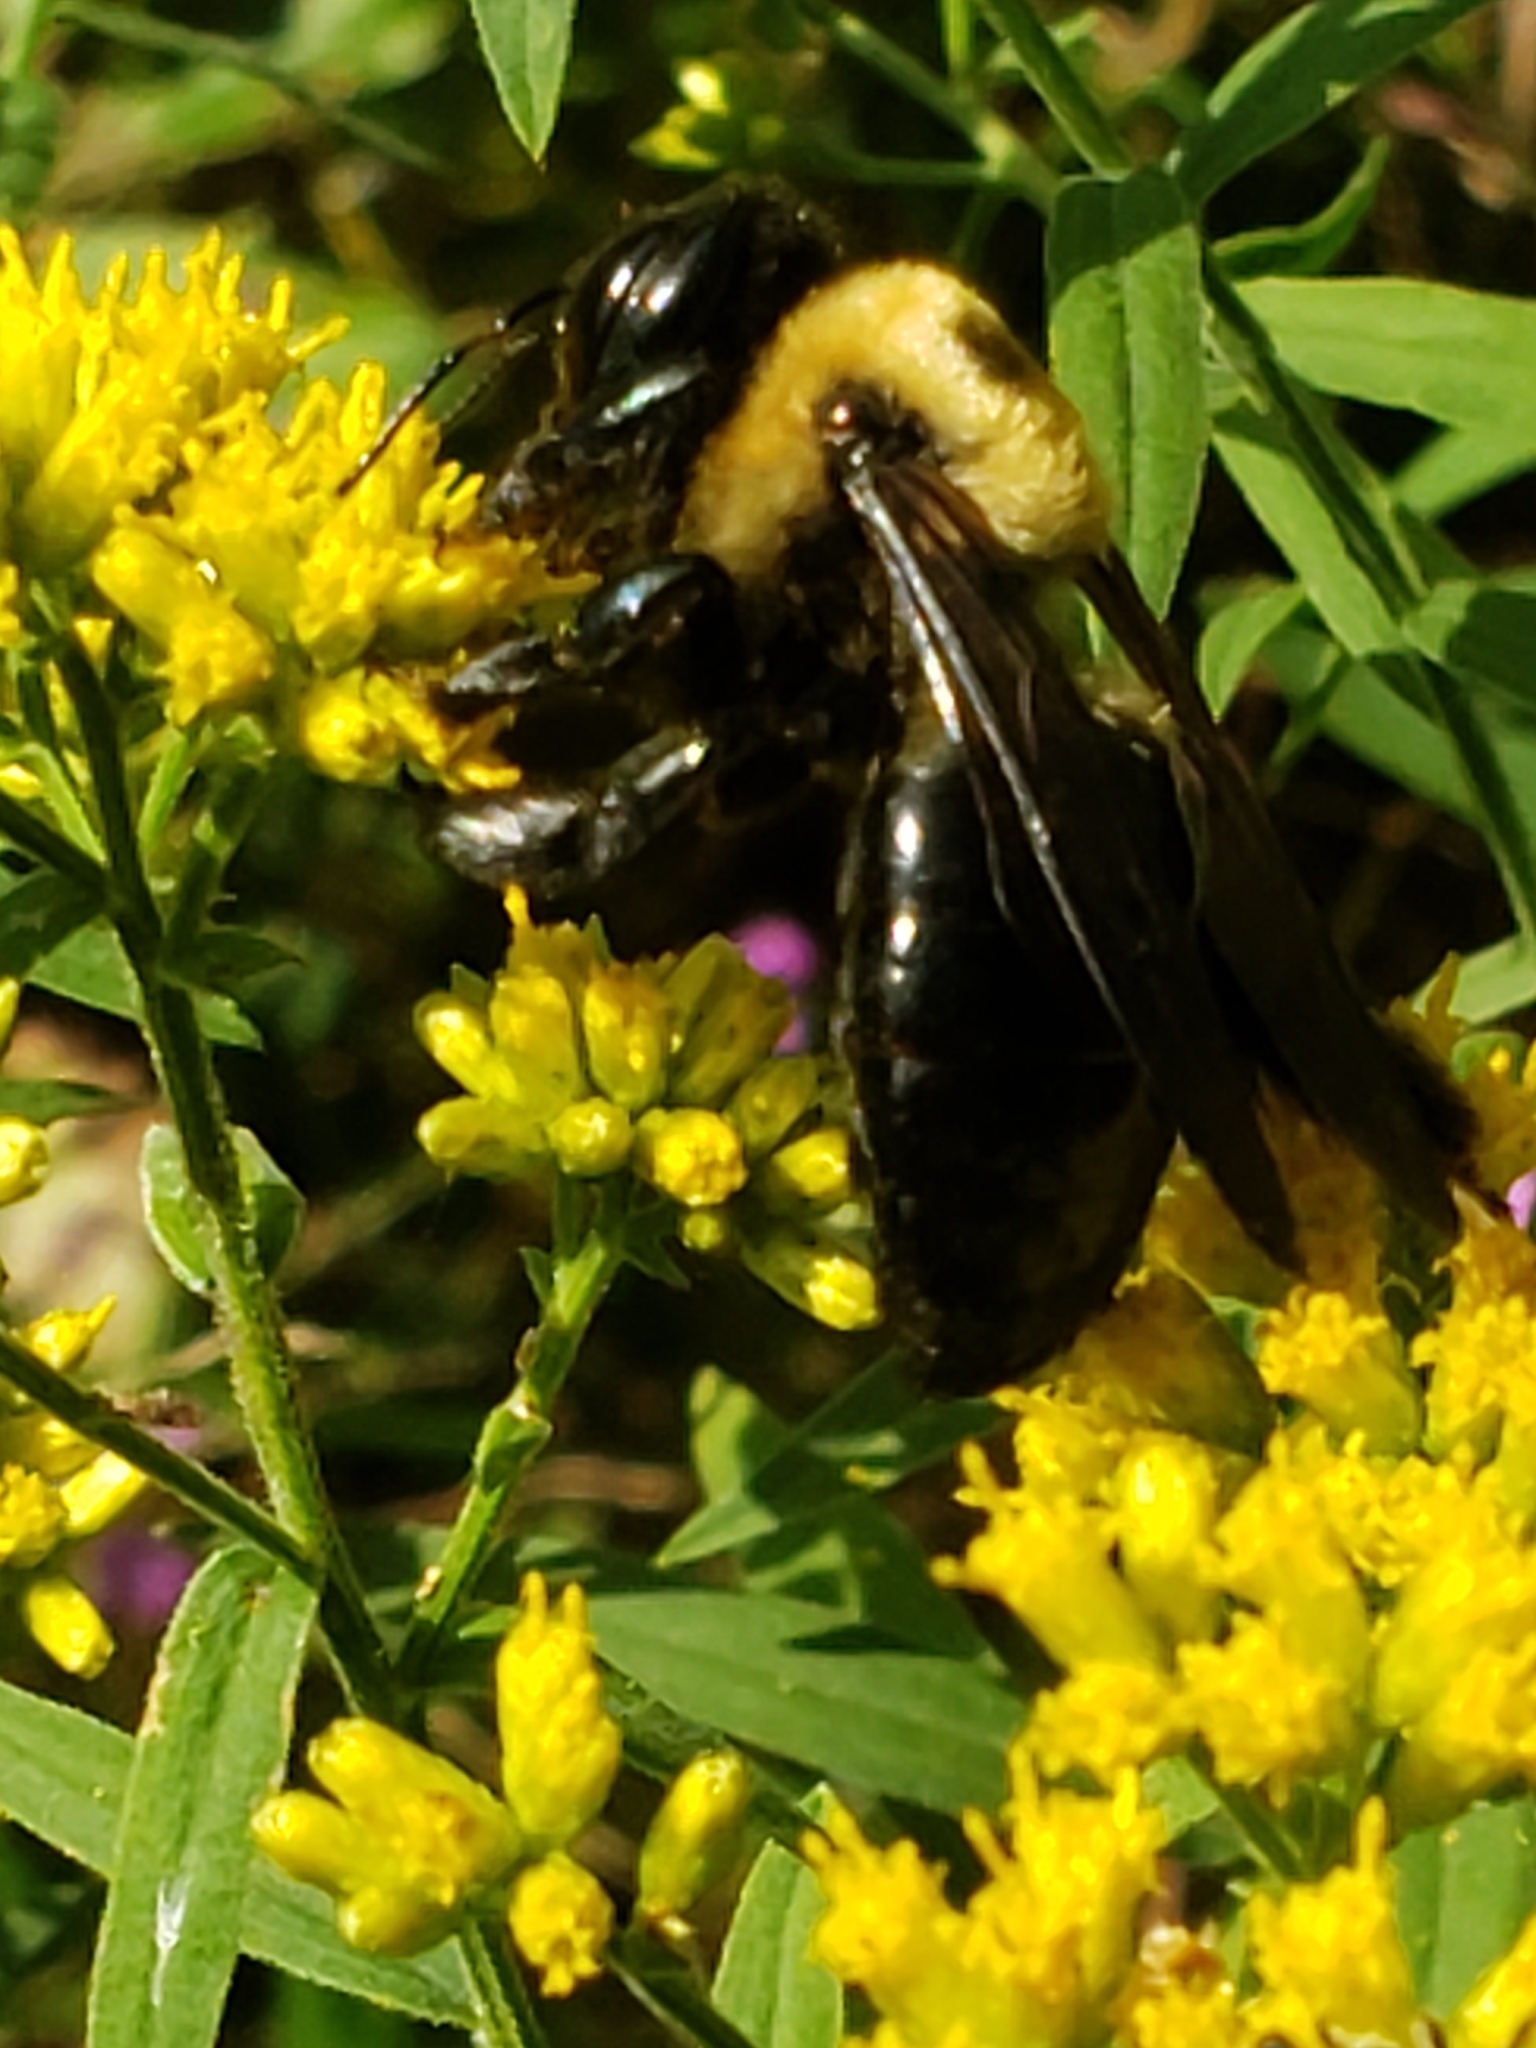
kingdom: Animalia
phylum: Arthropoda
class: Insecta
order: Hymenoptera
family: Apidae
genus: Xylocopa
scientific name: Xylocopa virginica
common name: Carpenter bee
